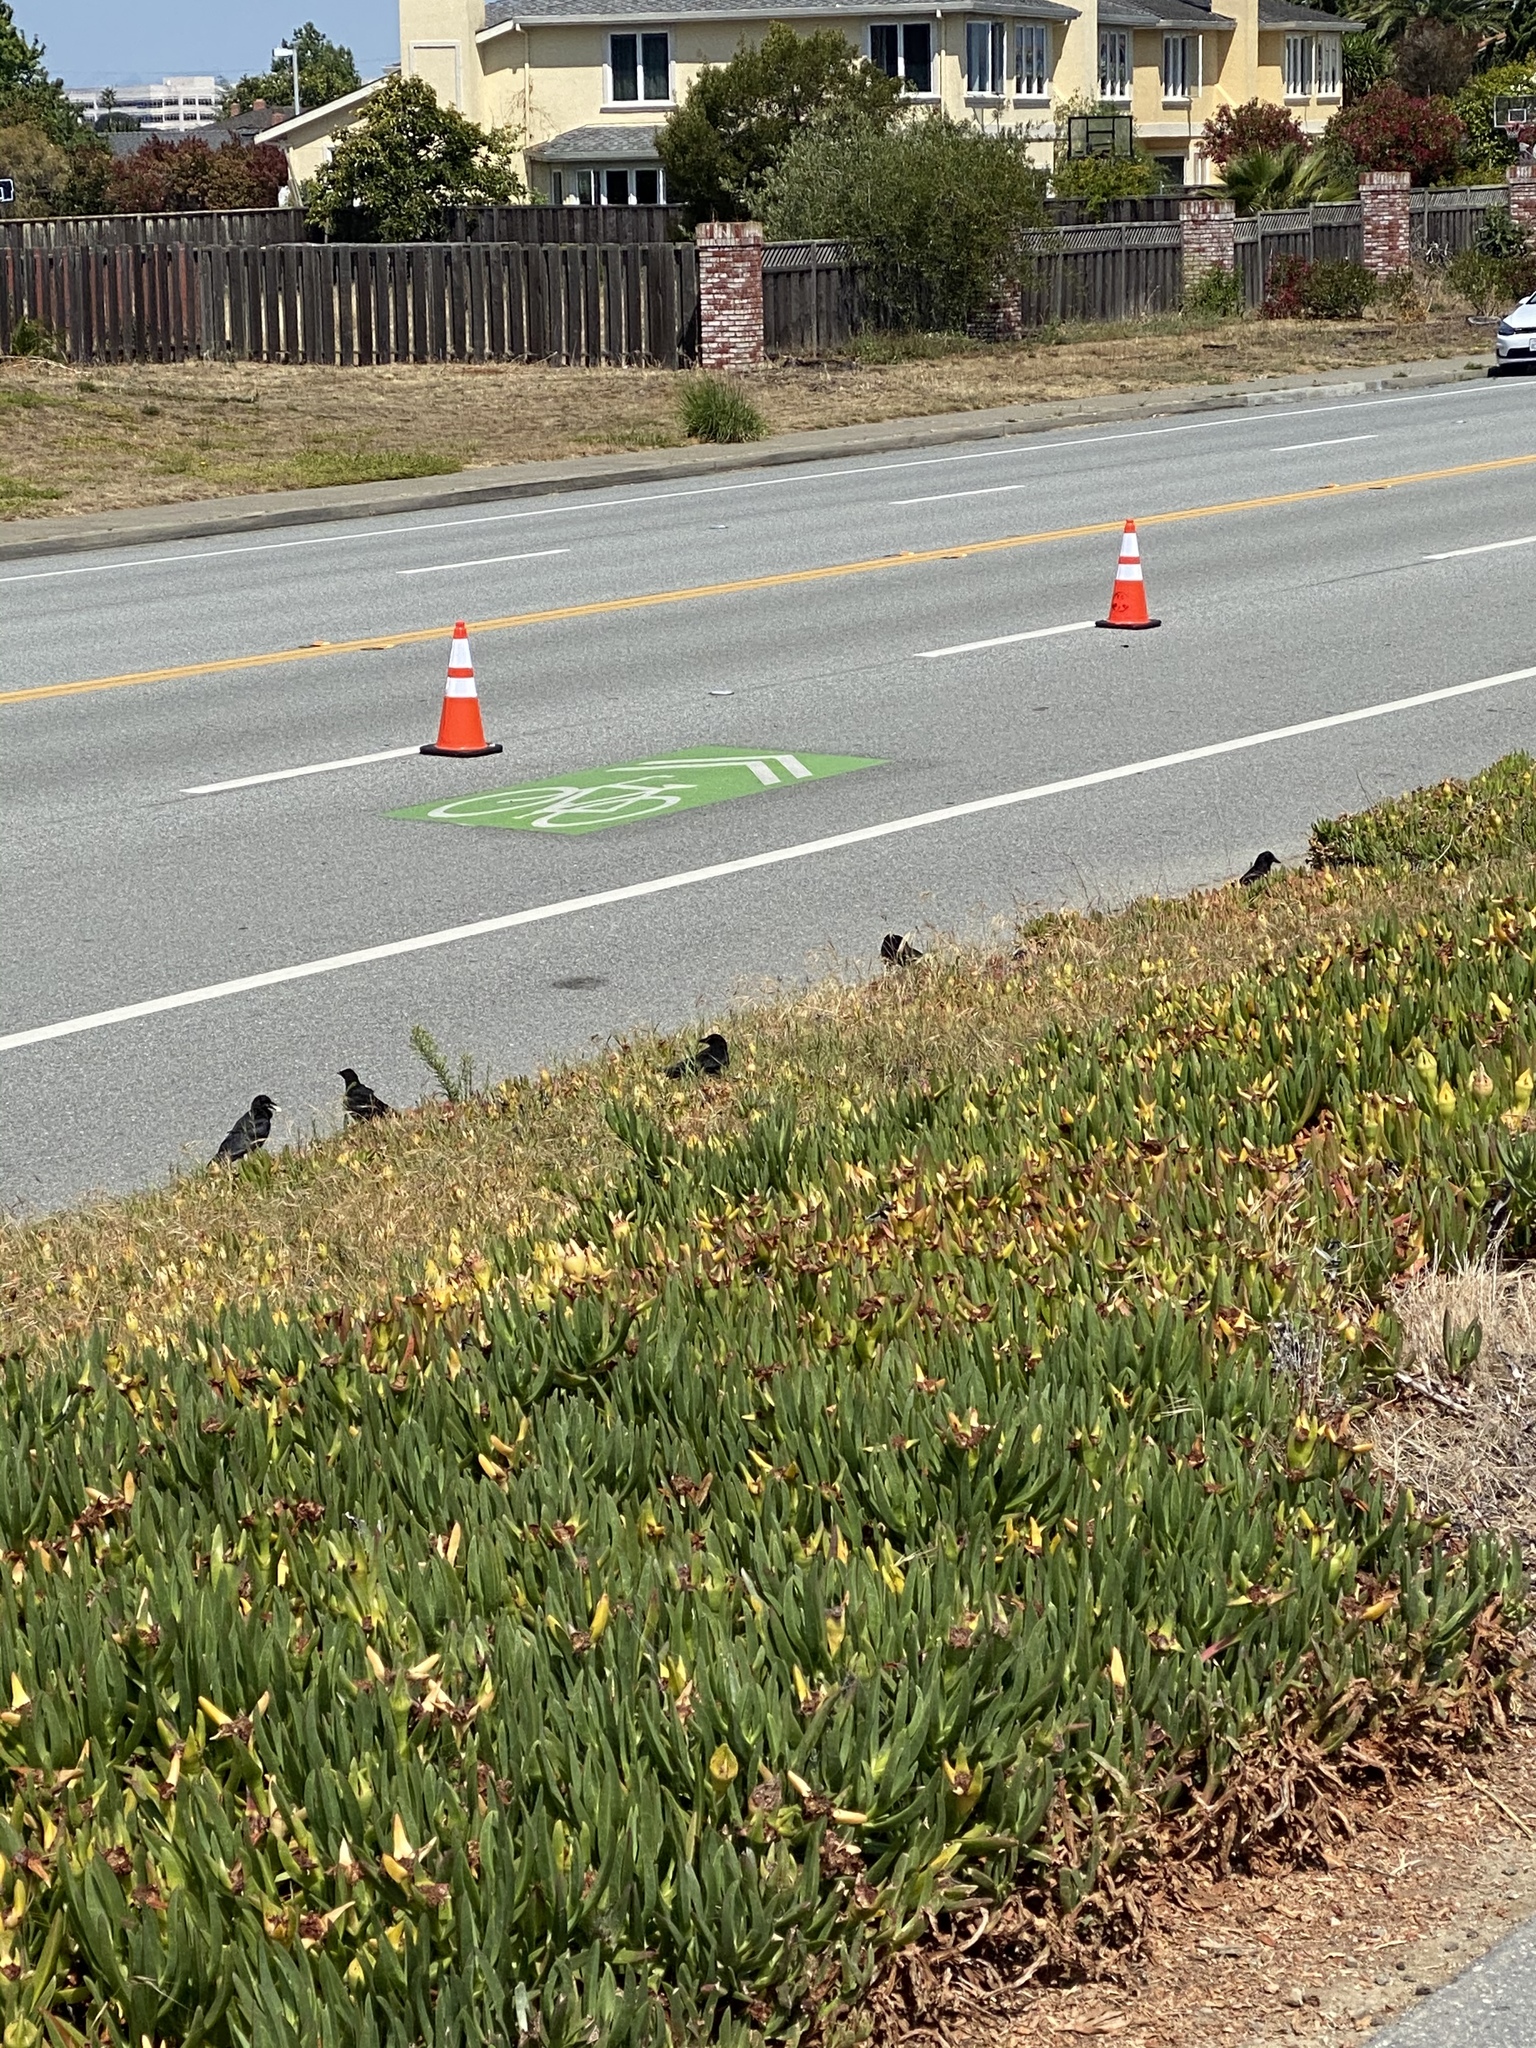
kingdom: Animalia
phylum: Chordata
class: Aves
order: Passeriformes
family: Corvidae
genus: Corvus
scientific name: Corvus brachyrhynchos
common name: American crow
